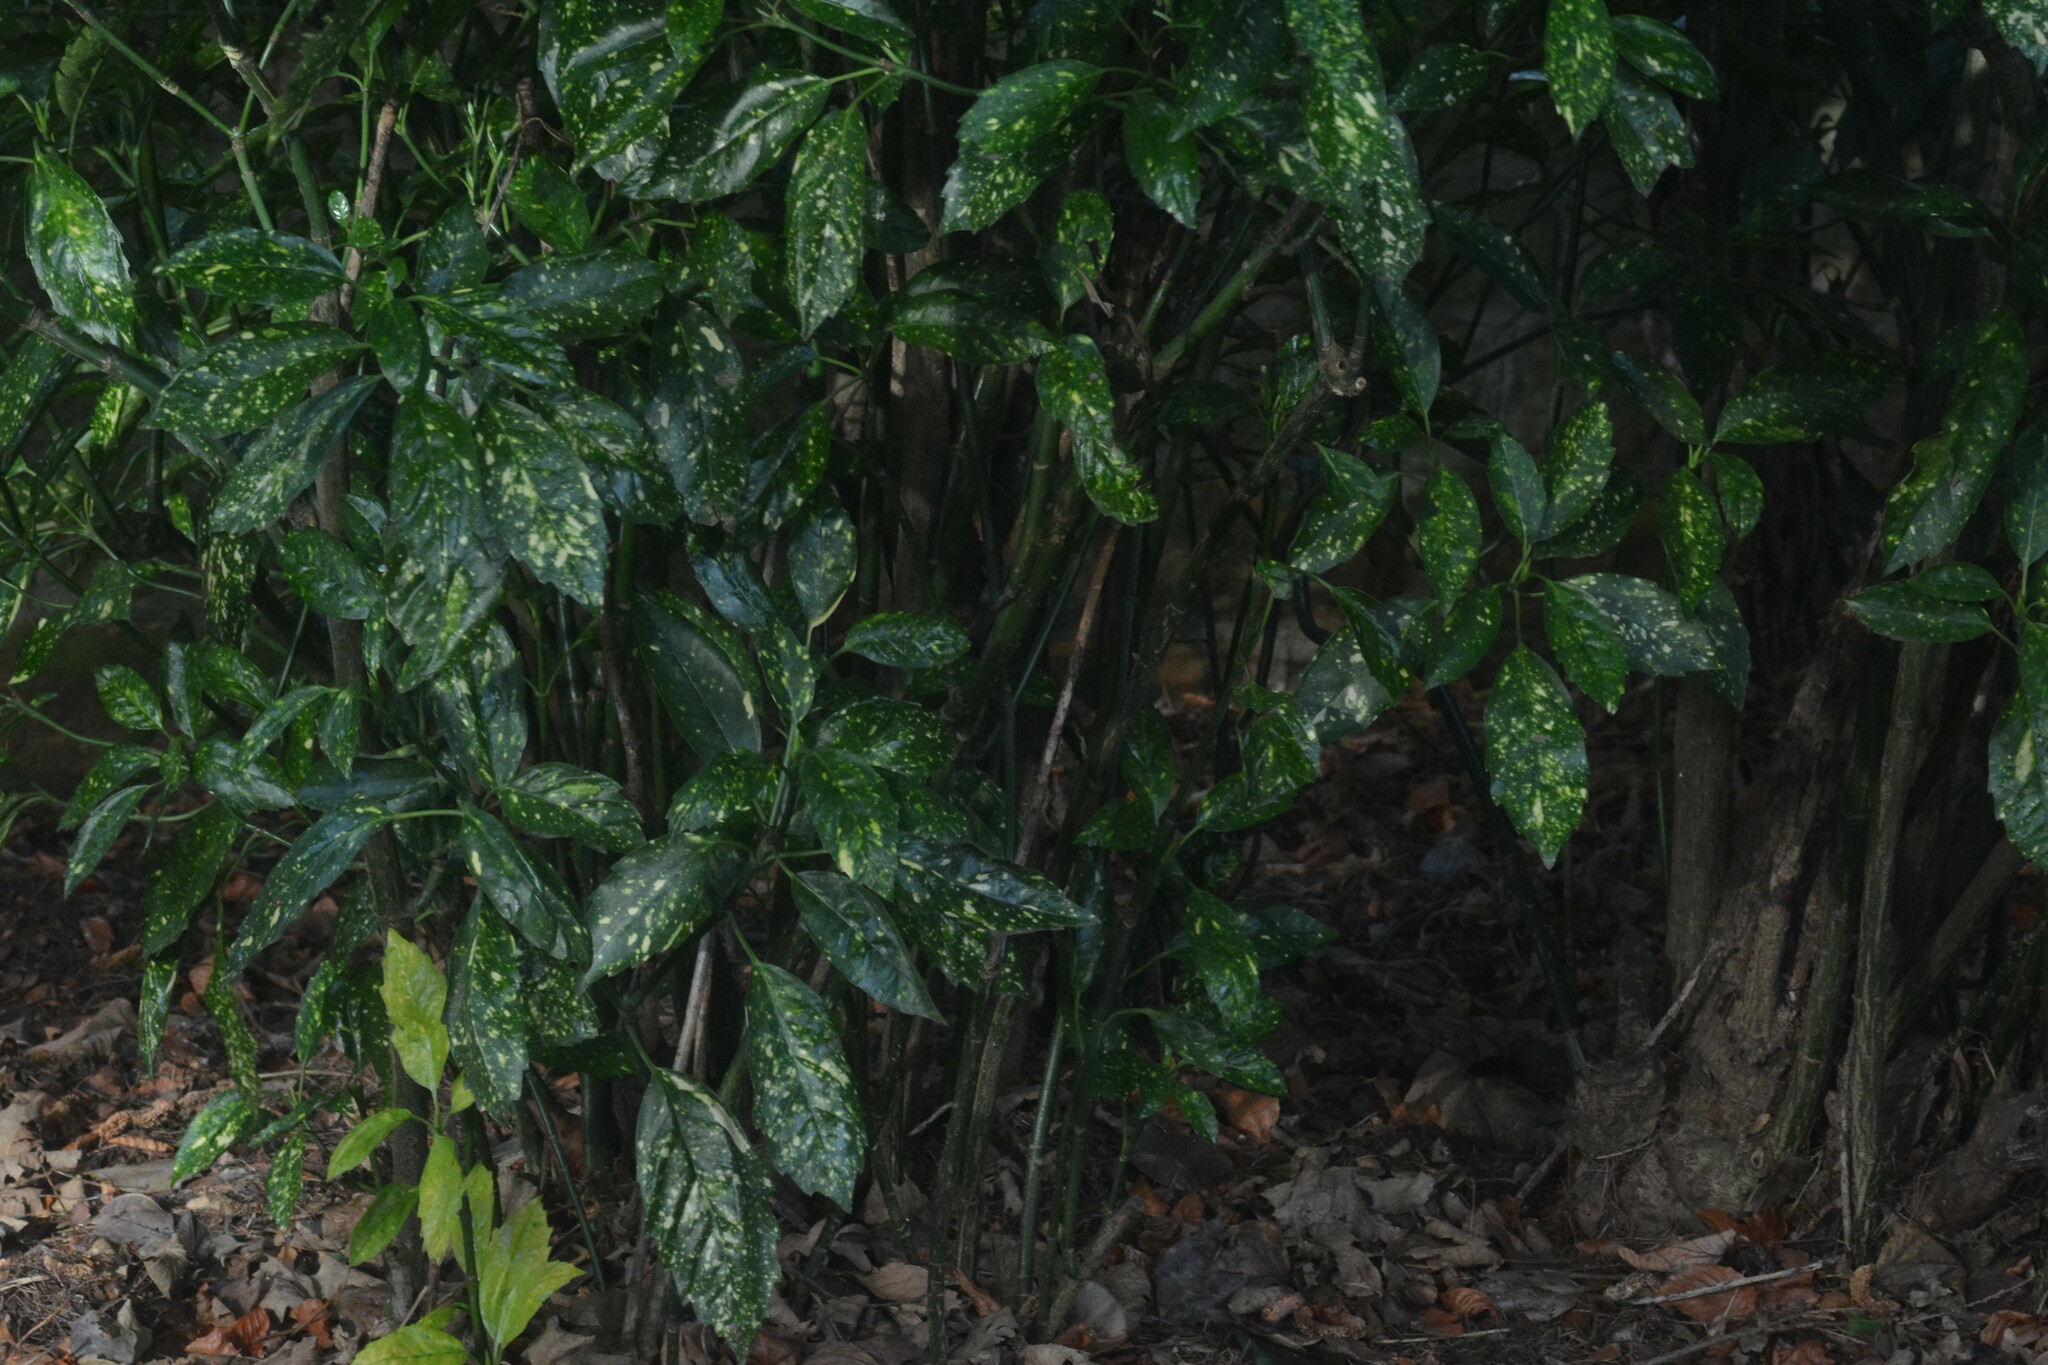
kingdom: Plantae
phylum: Tracheophyta
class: Magnoliopsida
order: Garryales
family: Garryaceae
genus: Aucuba
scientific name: Aucuba japonica
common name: Spotted-laurel
